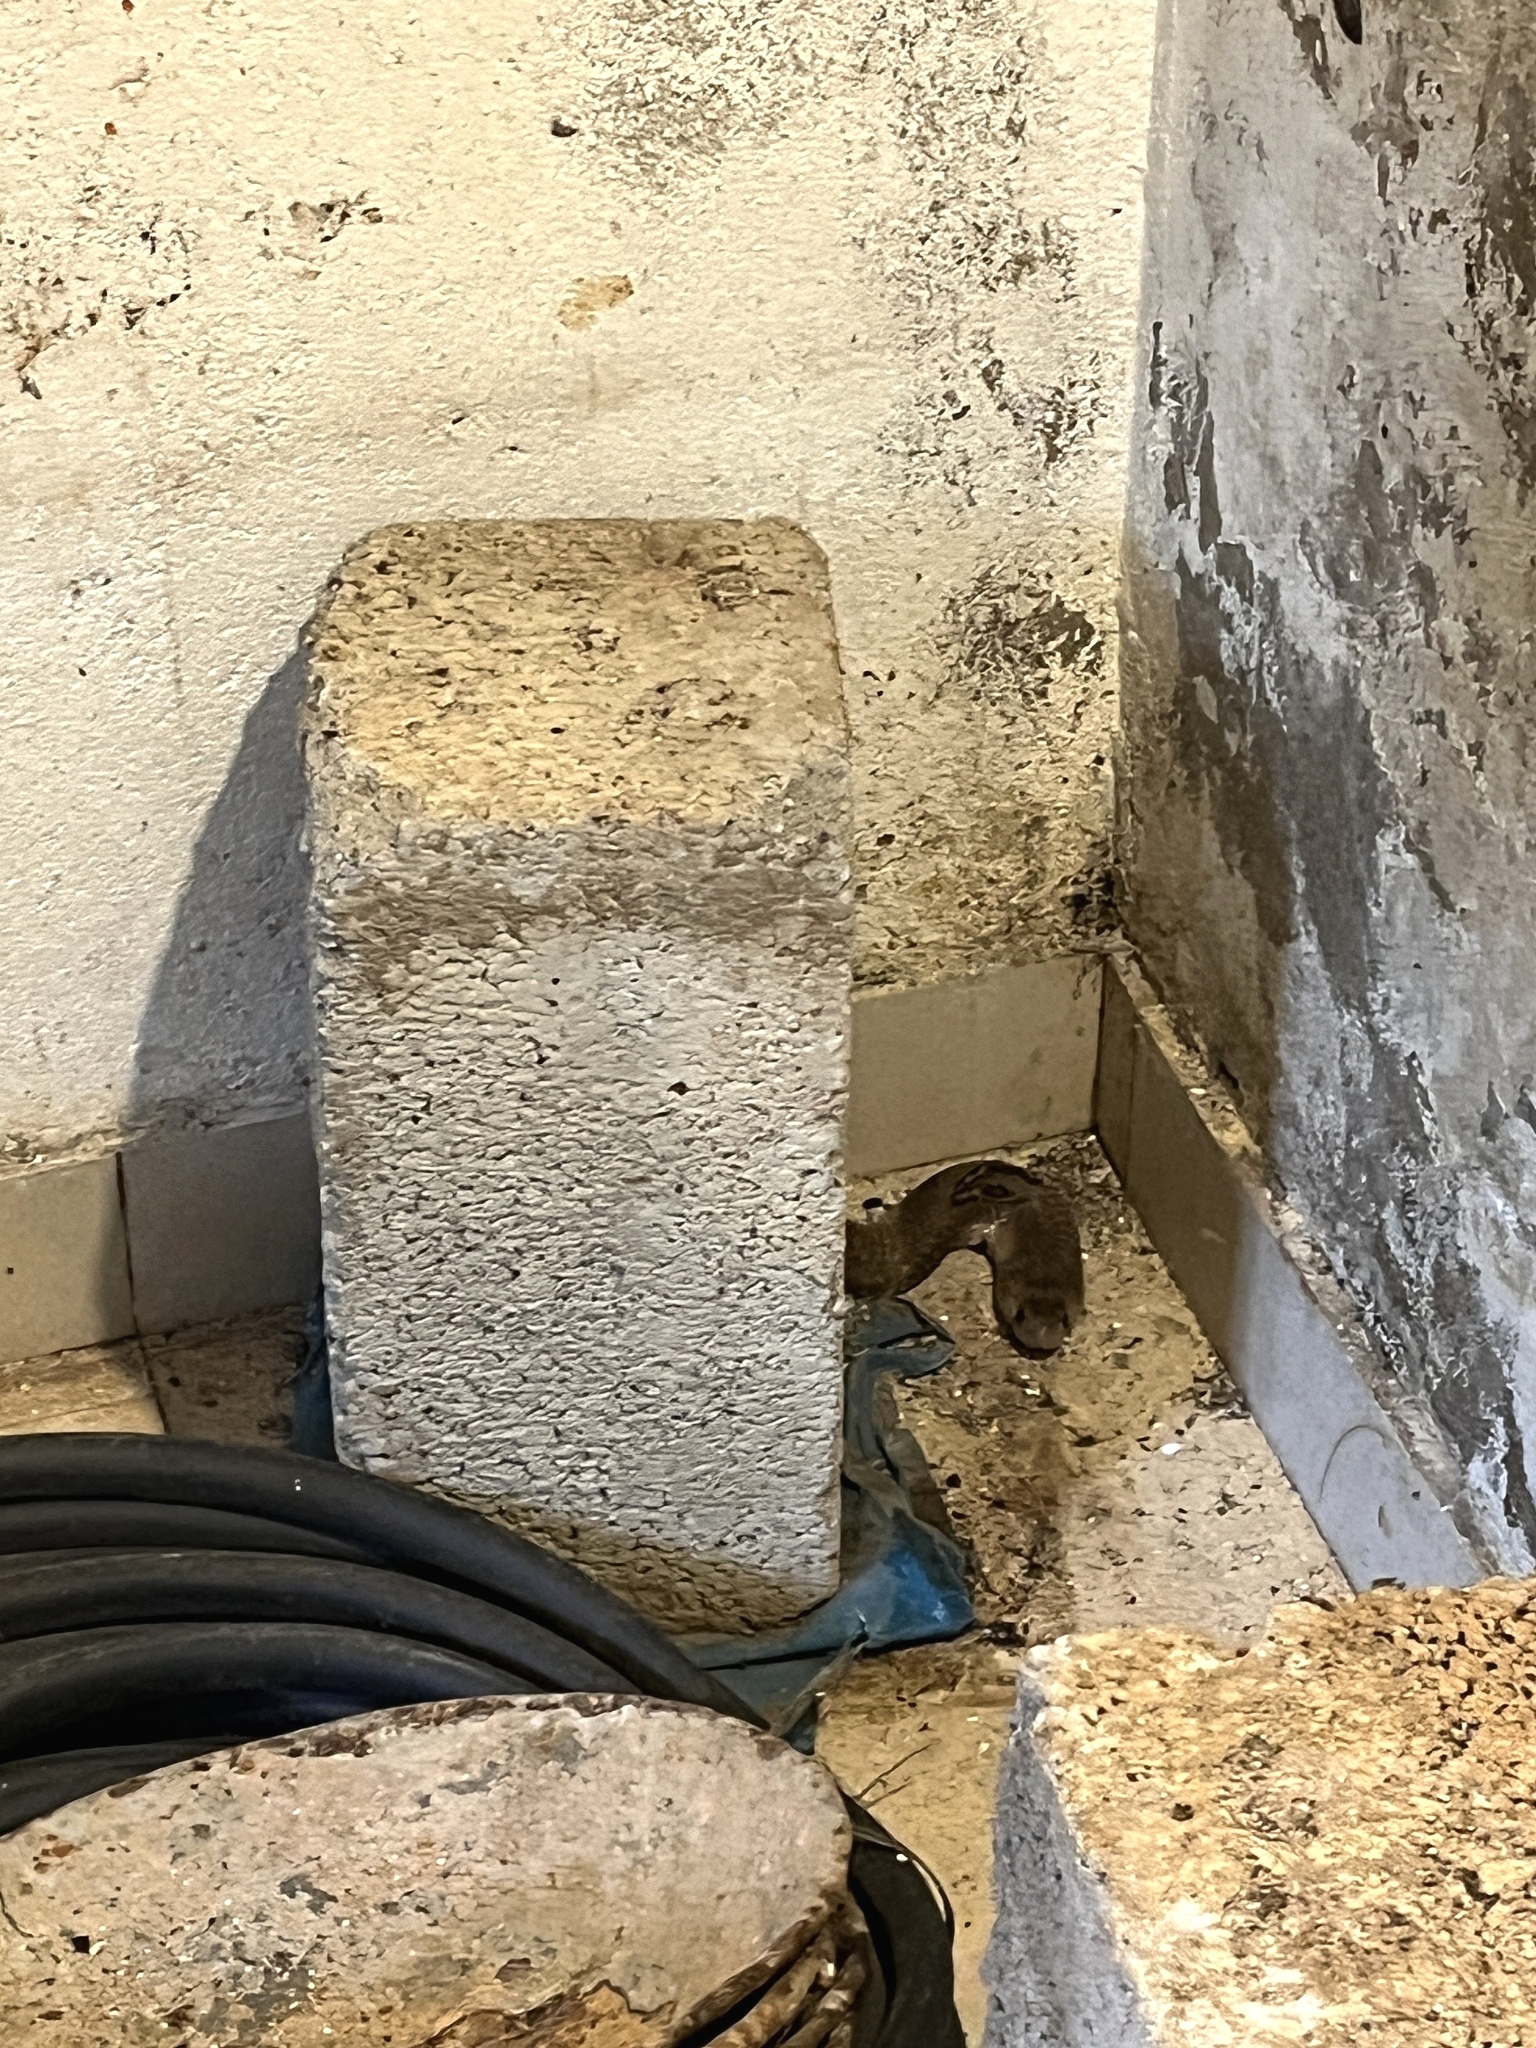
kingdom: Animalia
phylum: Chordata
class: Squamata
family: Elapidae
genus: Naja
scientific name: Naja naja
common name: Indian cobra
